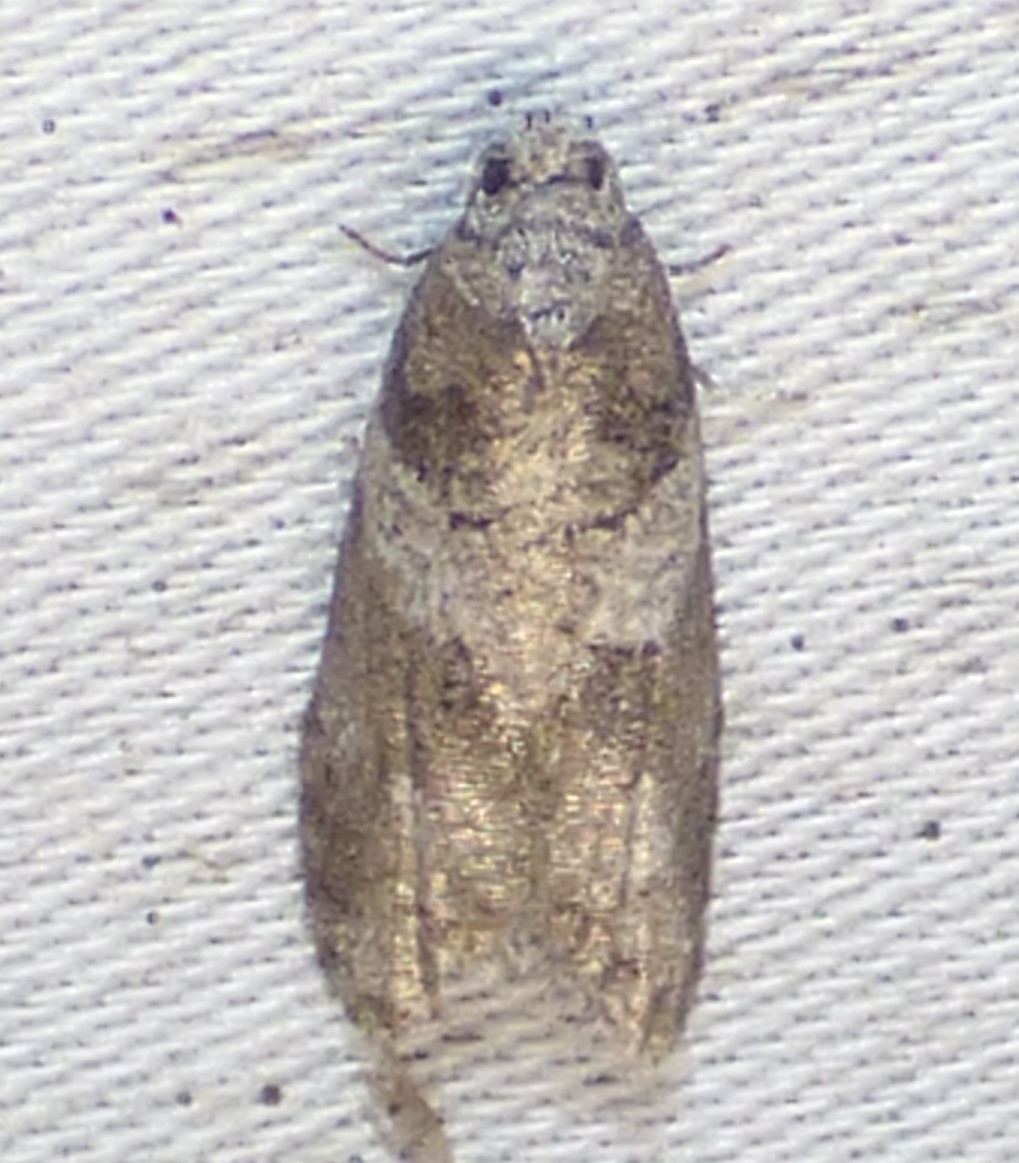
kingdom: Animalia
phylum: Arthropoda
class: Insecta
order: Lepidoptera
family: Tortricidae
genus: Decodes
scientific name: Decodes basiplagana
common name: Gray-marked tortricid
